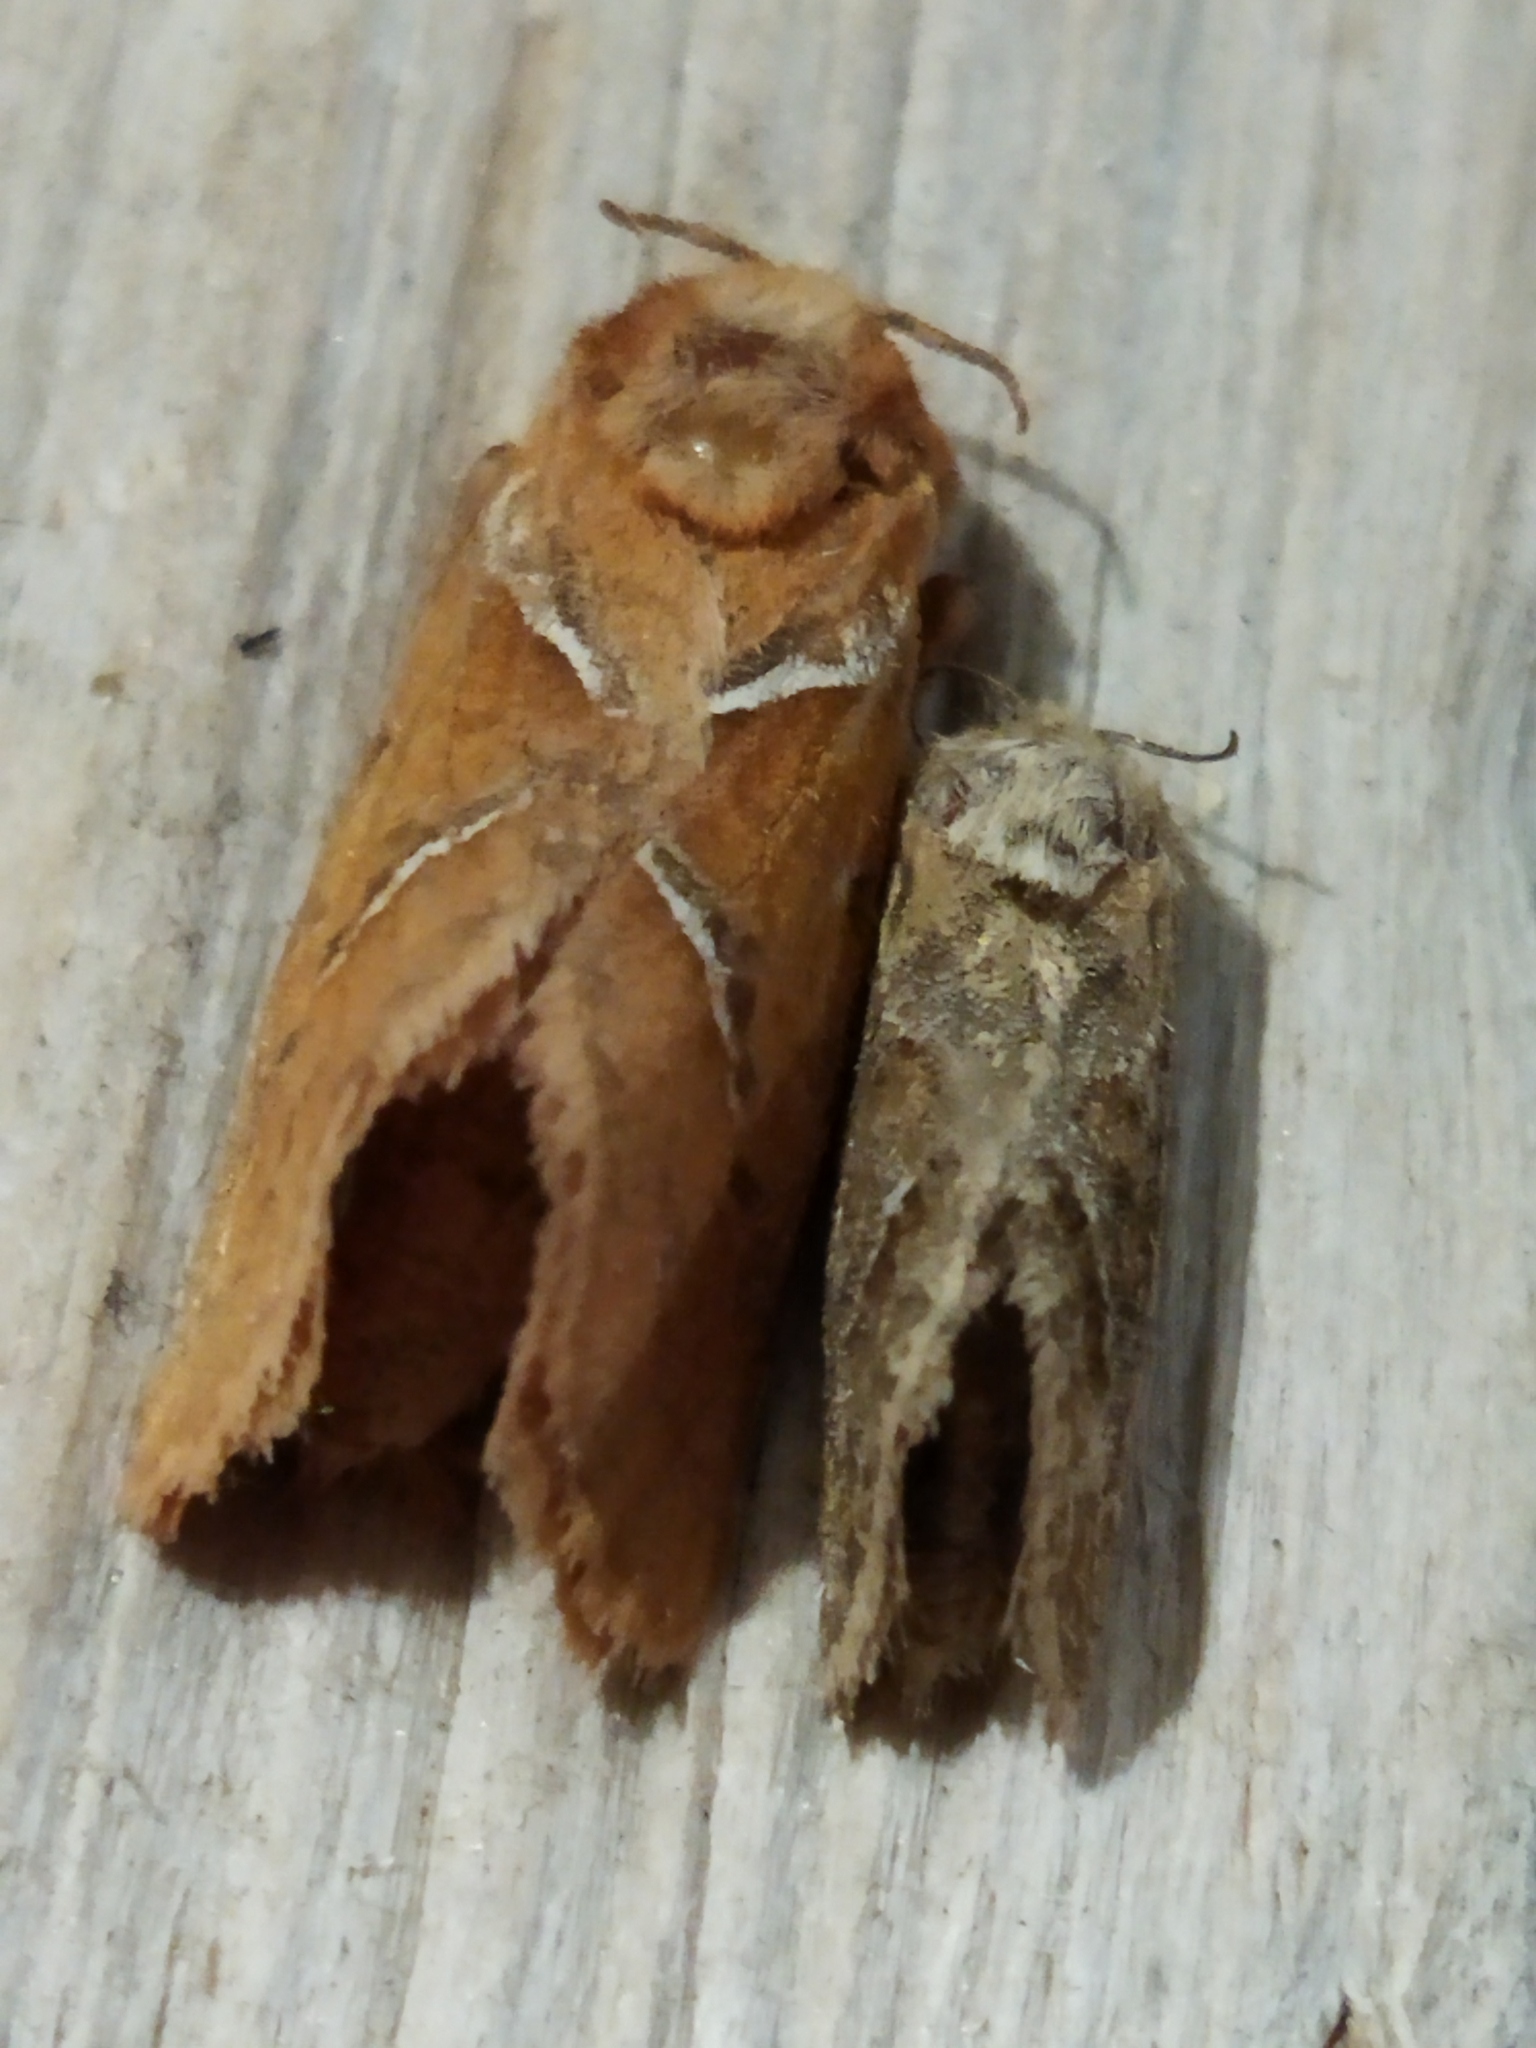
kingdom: Animalia
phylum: Arthropoda
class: Insecta
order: Lepidoptera
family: Hepialidae
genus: Triodia
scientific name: Triodia sylvina
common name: Orange swift
